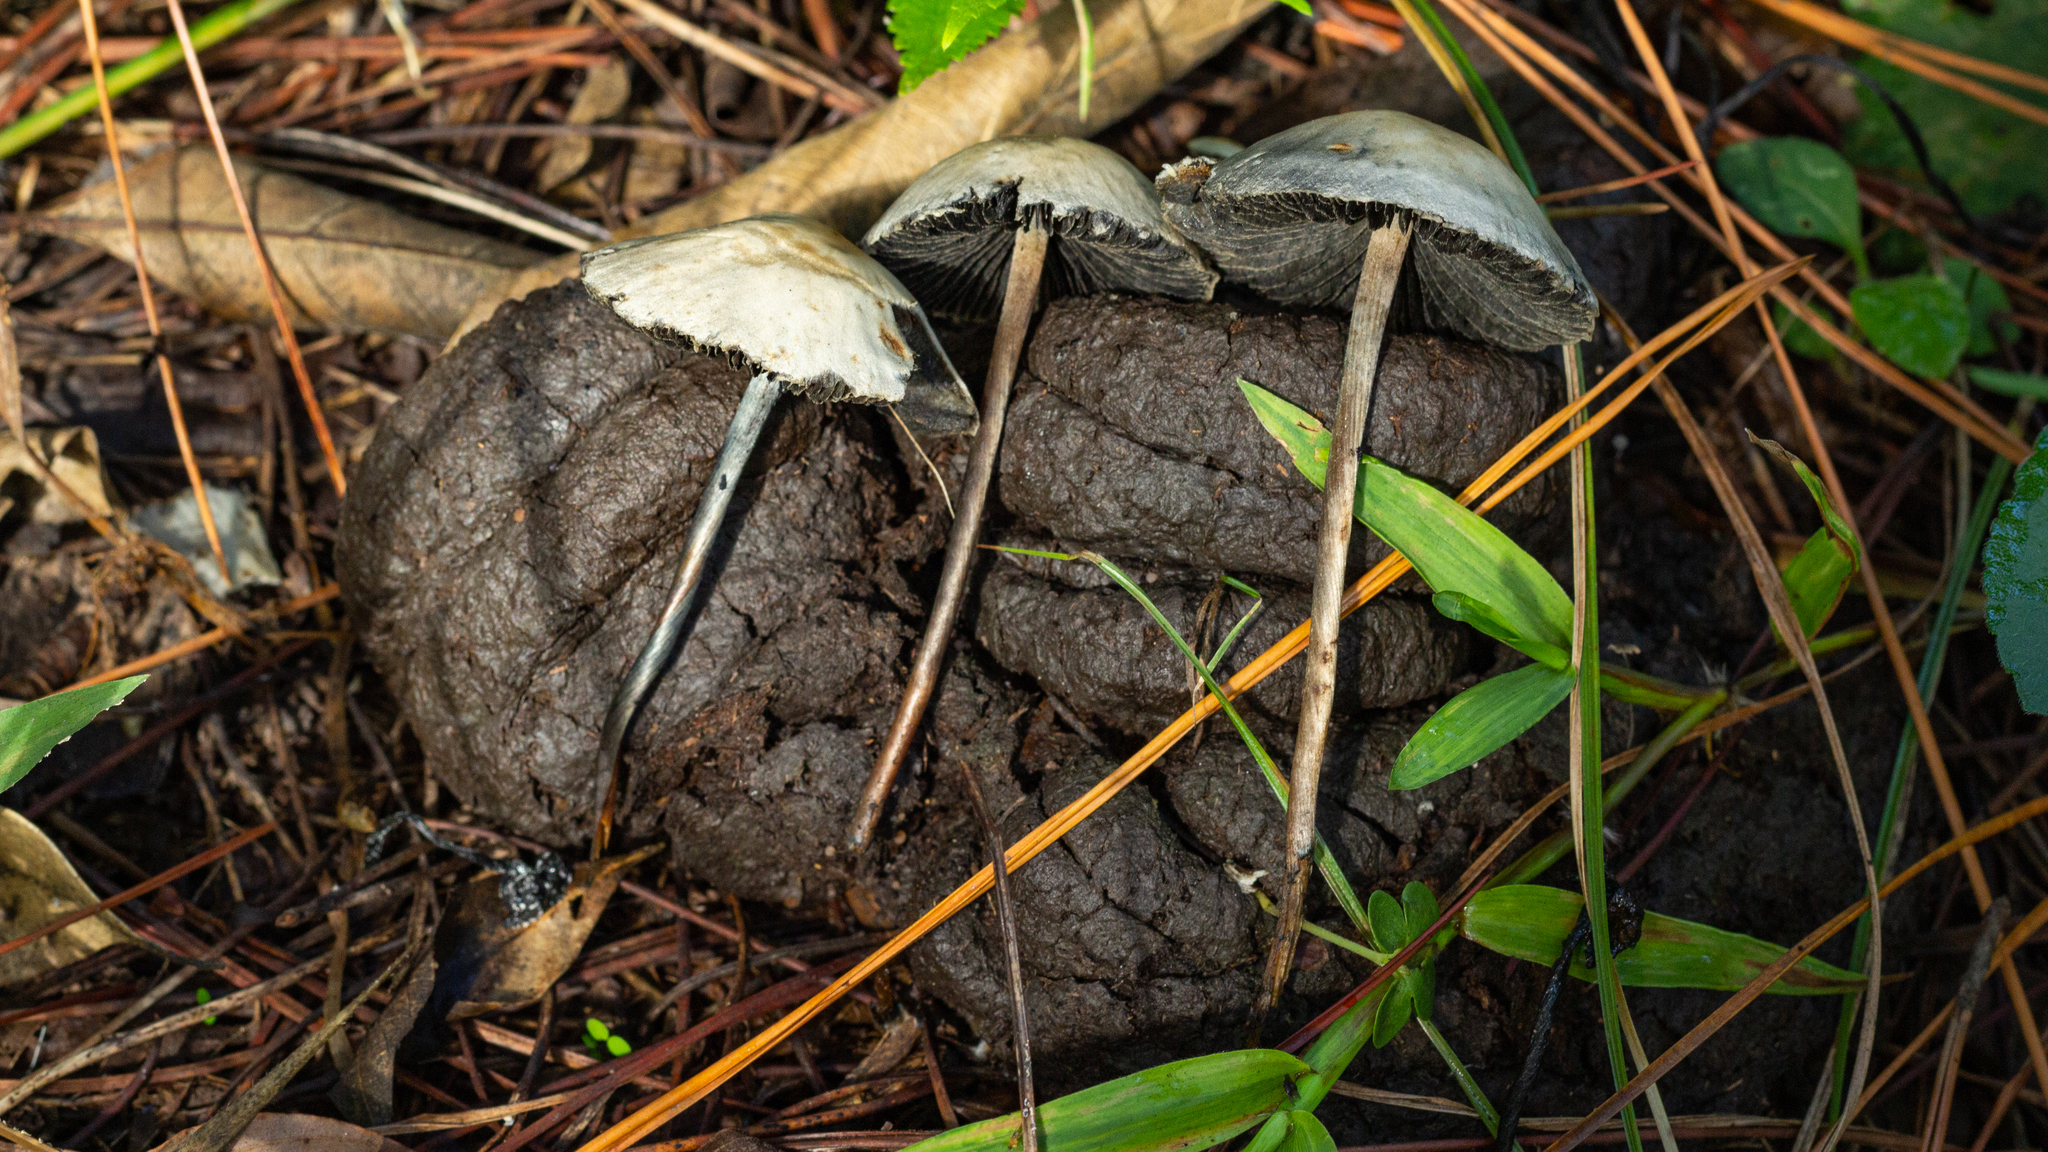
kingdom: Fungi
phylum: Basidiomycota
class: Agaricomycetes
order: Agaricales
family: Bolbitiaceae
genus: Panaeolus
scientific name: Panaeolus cyanescens
